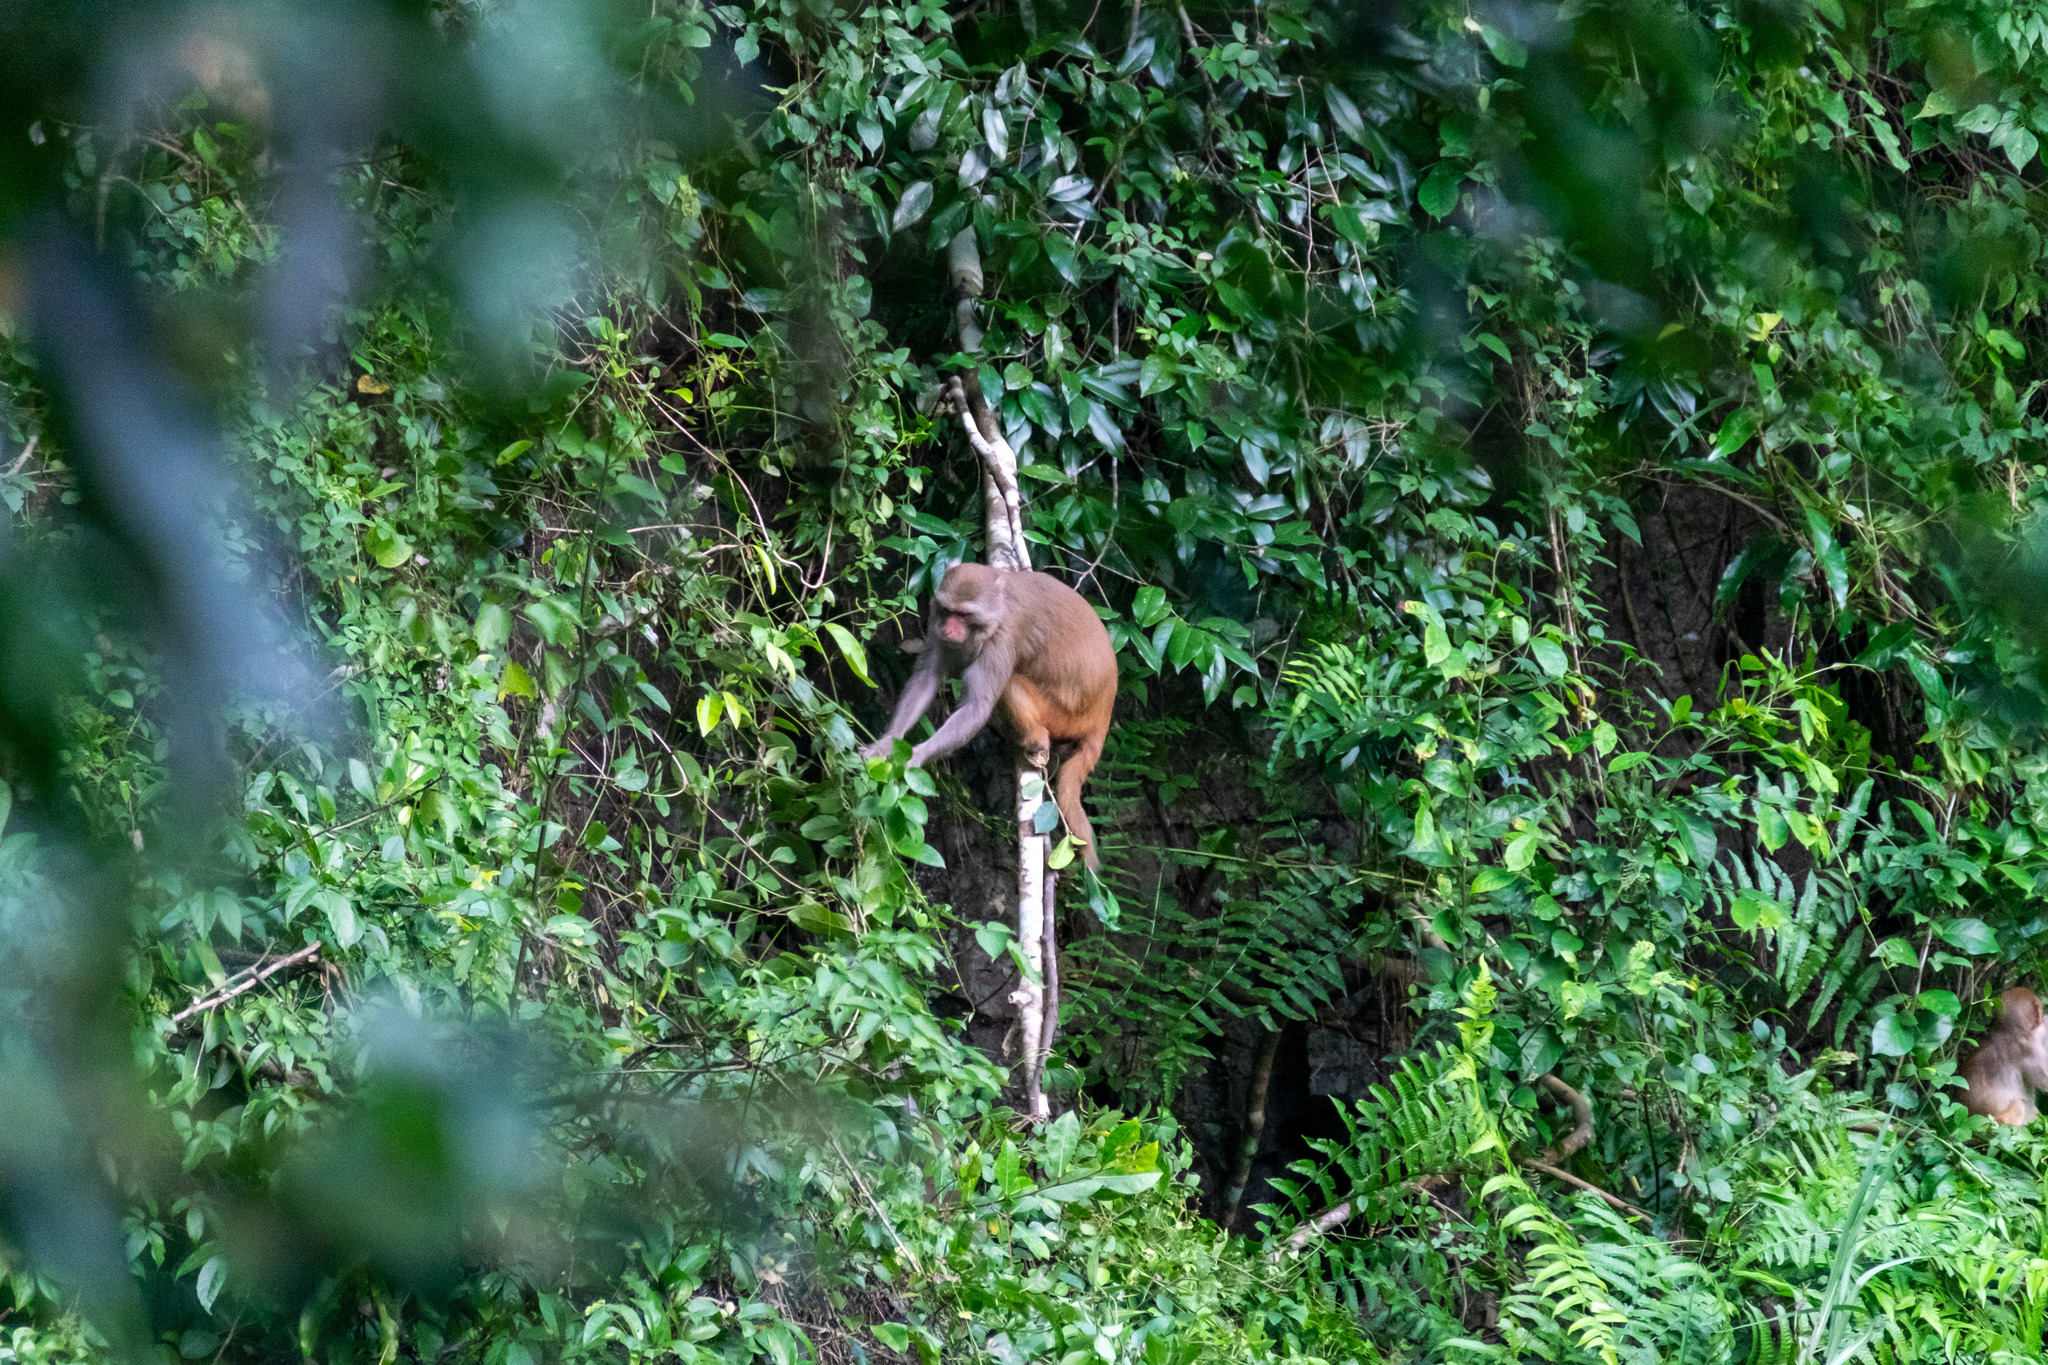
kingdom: Animalia
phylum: Chordata
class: Mammalia
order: Primates
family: Cercopithecidae
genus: Macaca
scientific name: Macaca mulatta
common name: Rhesus monkey
